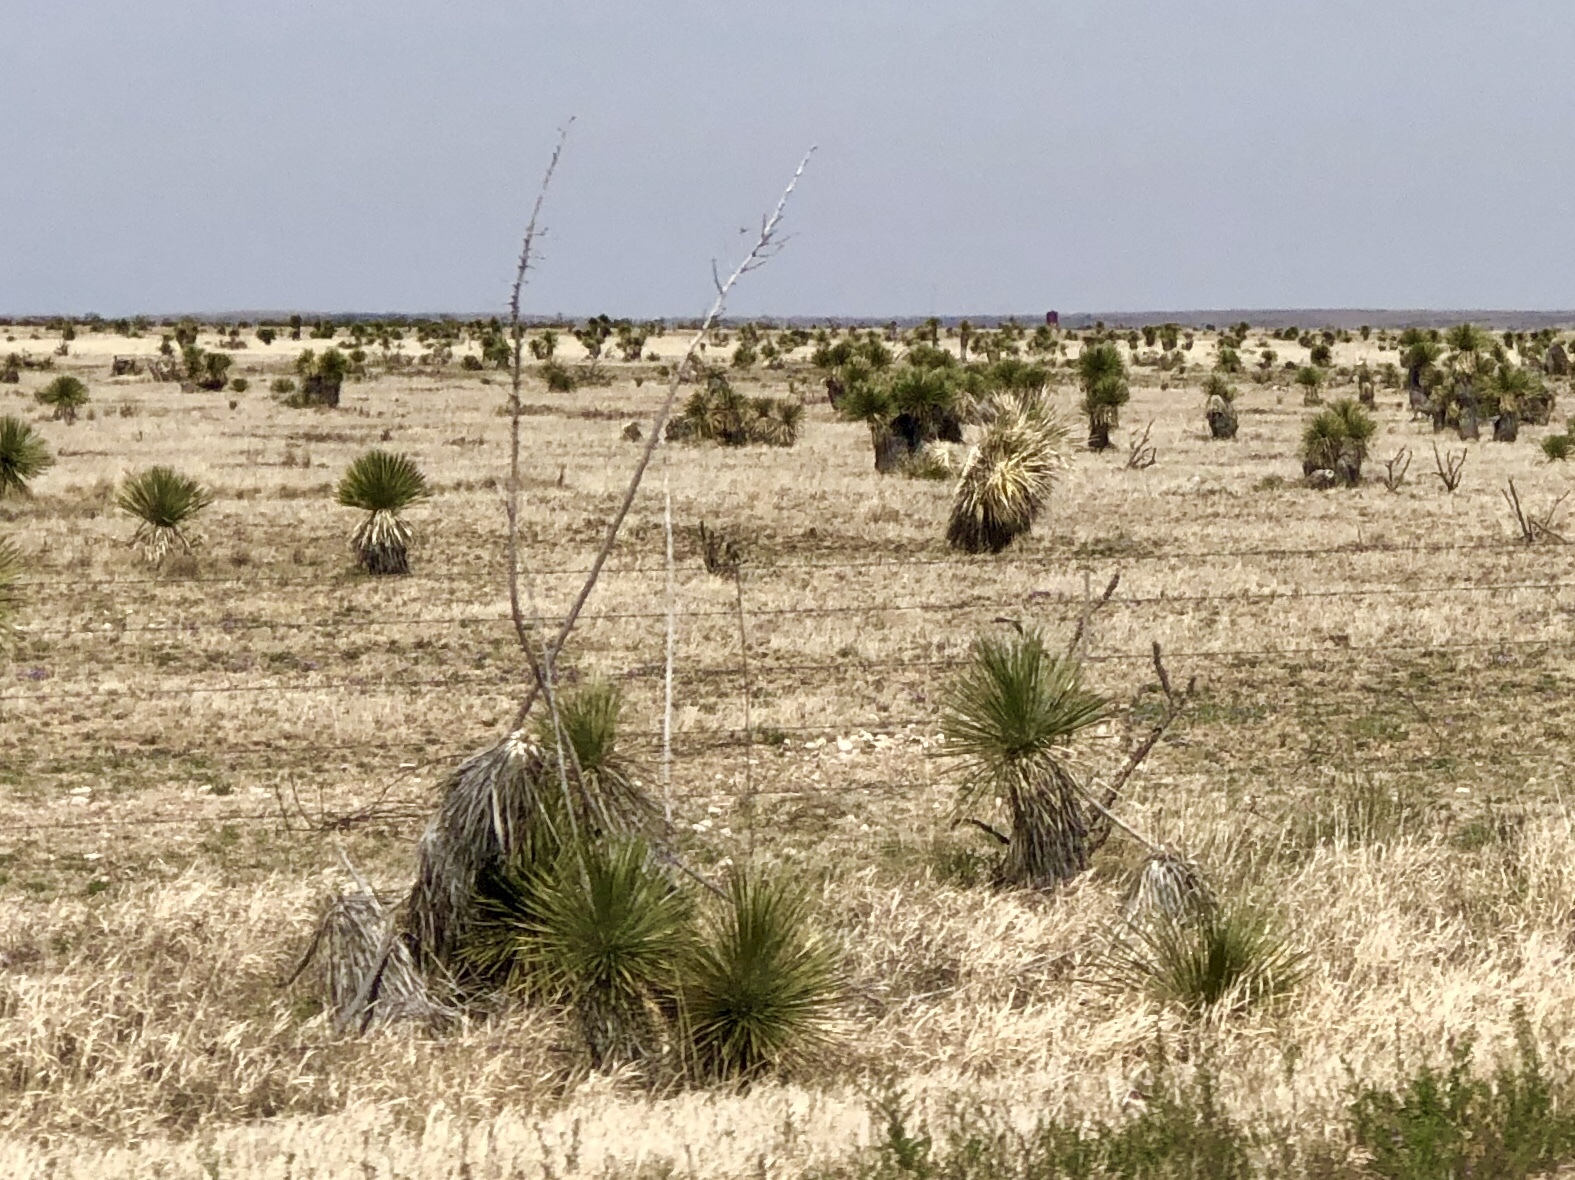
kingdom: Plantae
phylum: Tracheophyta
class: Liliopsida
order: Asparagales
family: Asparagaceae
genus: Yucca
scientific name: Yucca elata
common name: Palmella
